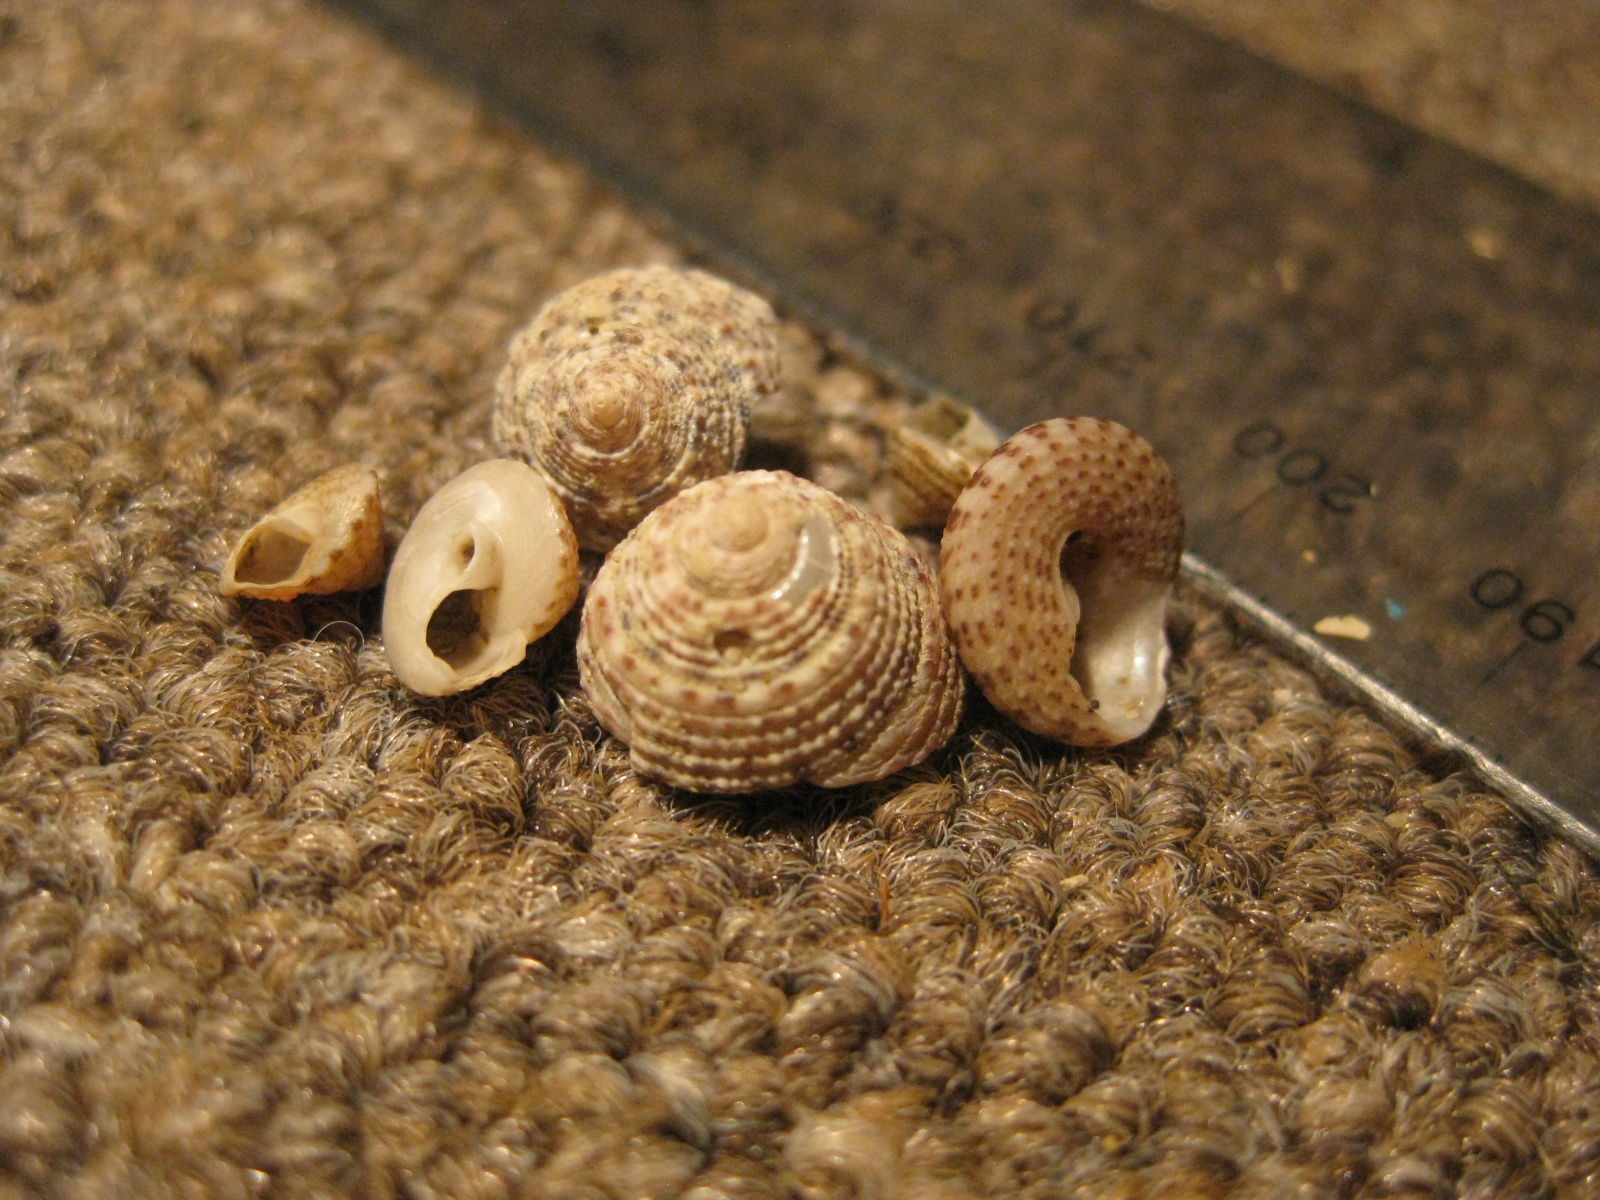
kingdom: Animalia
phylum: Mollusca
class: Gastropoda
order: Trochida
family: Trochidae
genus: Coelotrochus
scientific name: Coelotrochus tiaratus
